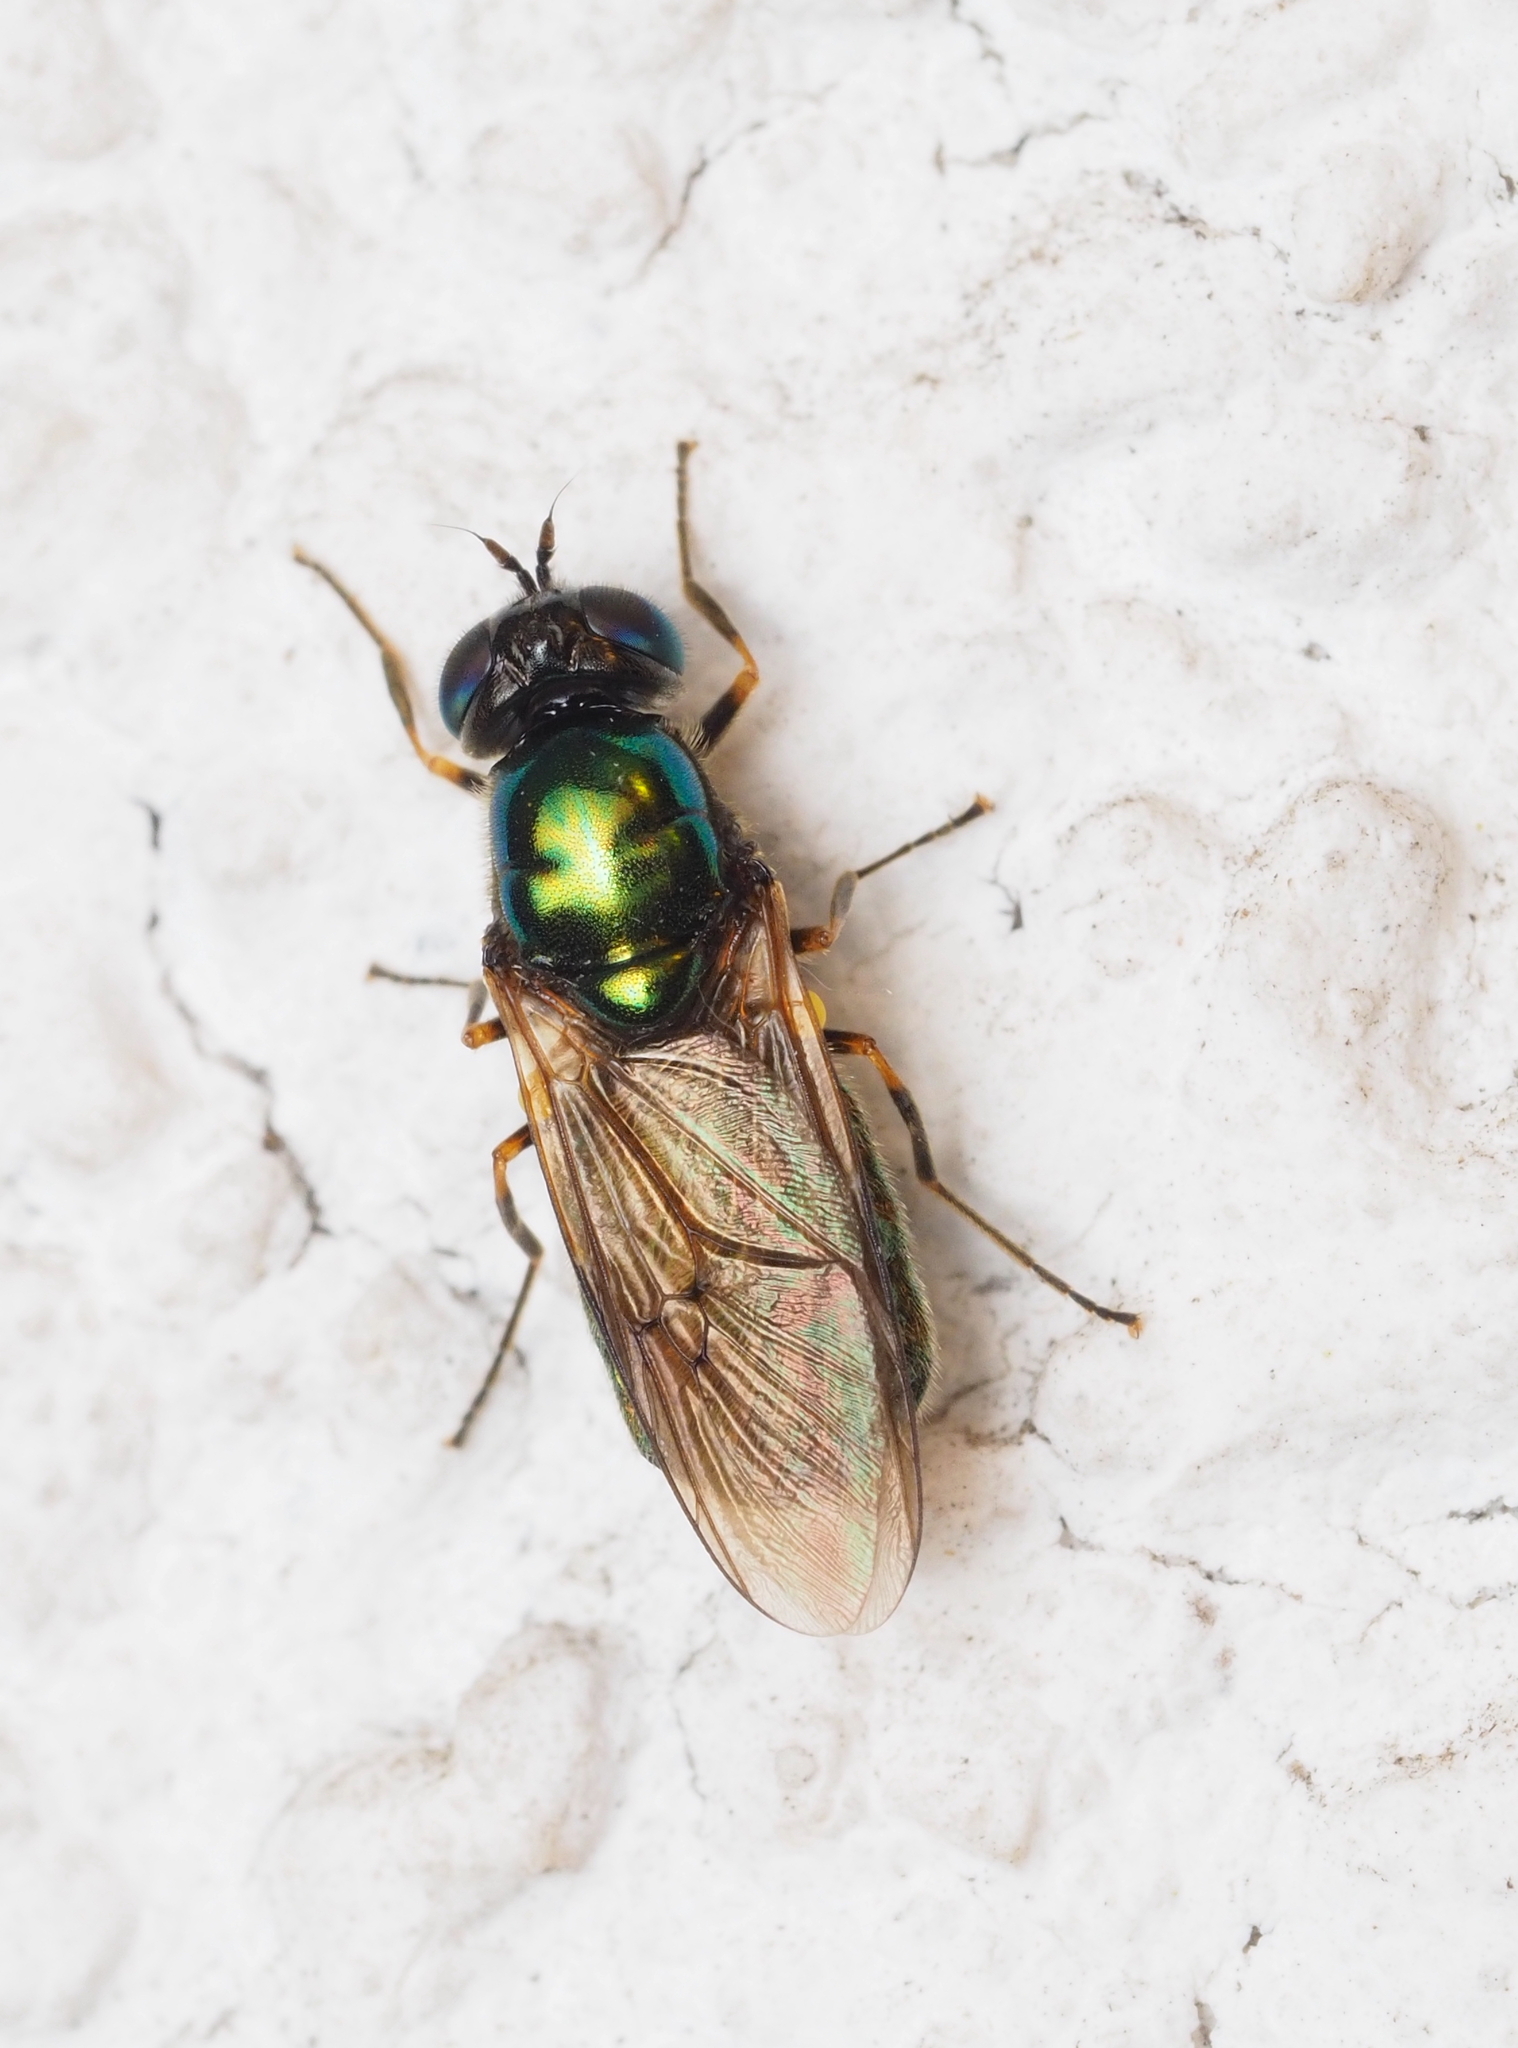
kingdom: Animalia
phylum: Arthropoda
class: Insecta
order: Diptera
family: Stratiomyidae
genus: Chloromyia
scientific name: Chloromyia formosa
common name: Soldier fly
